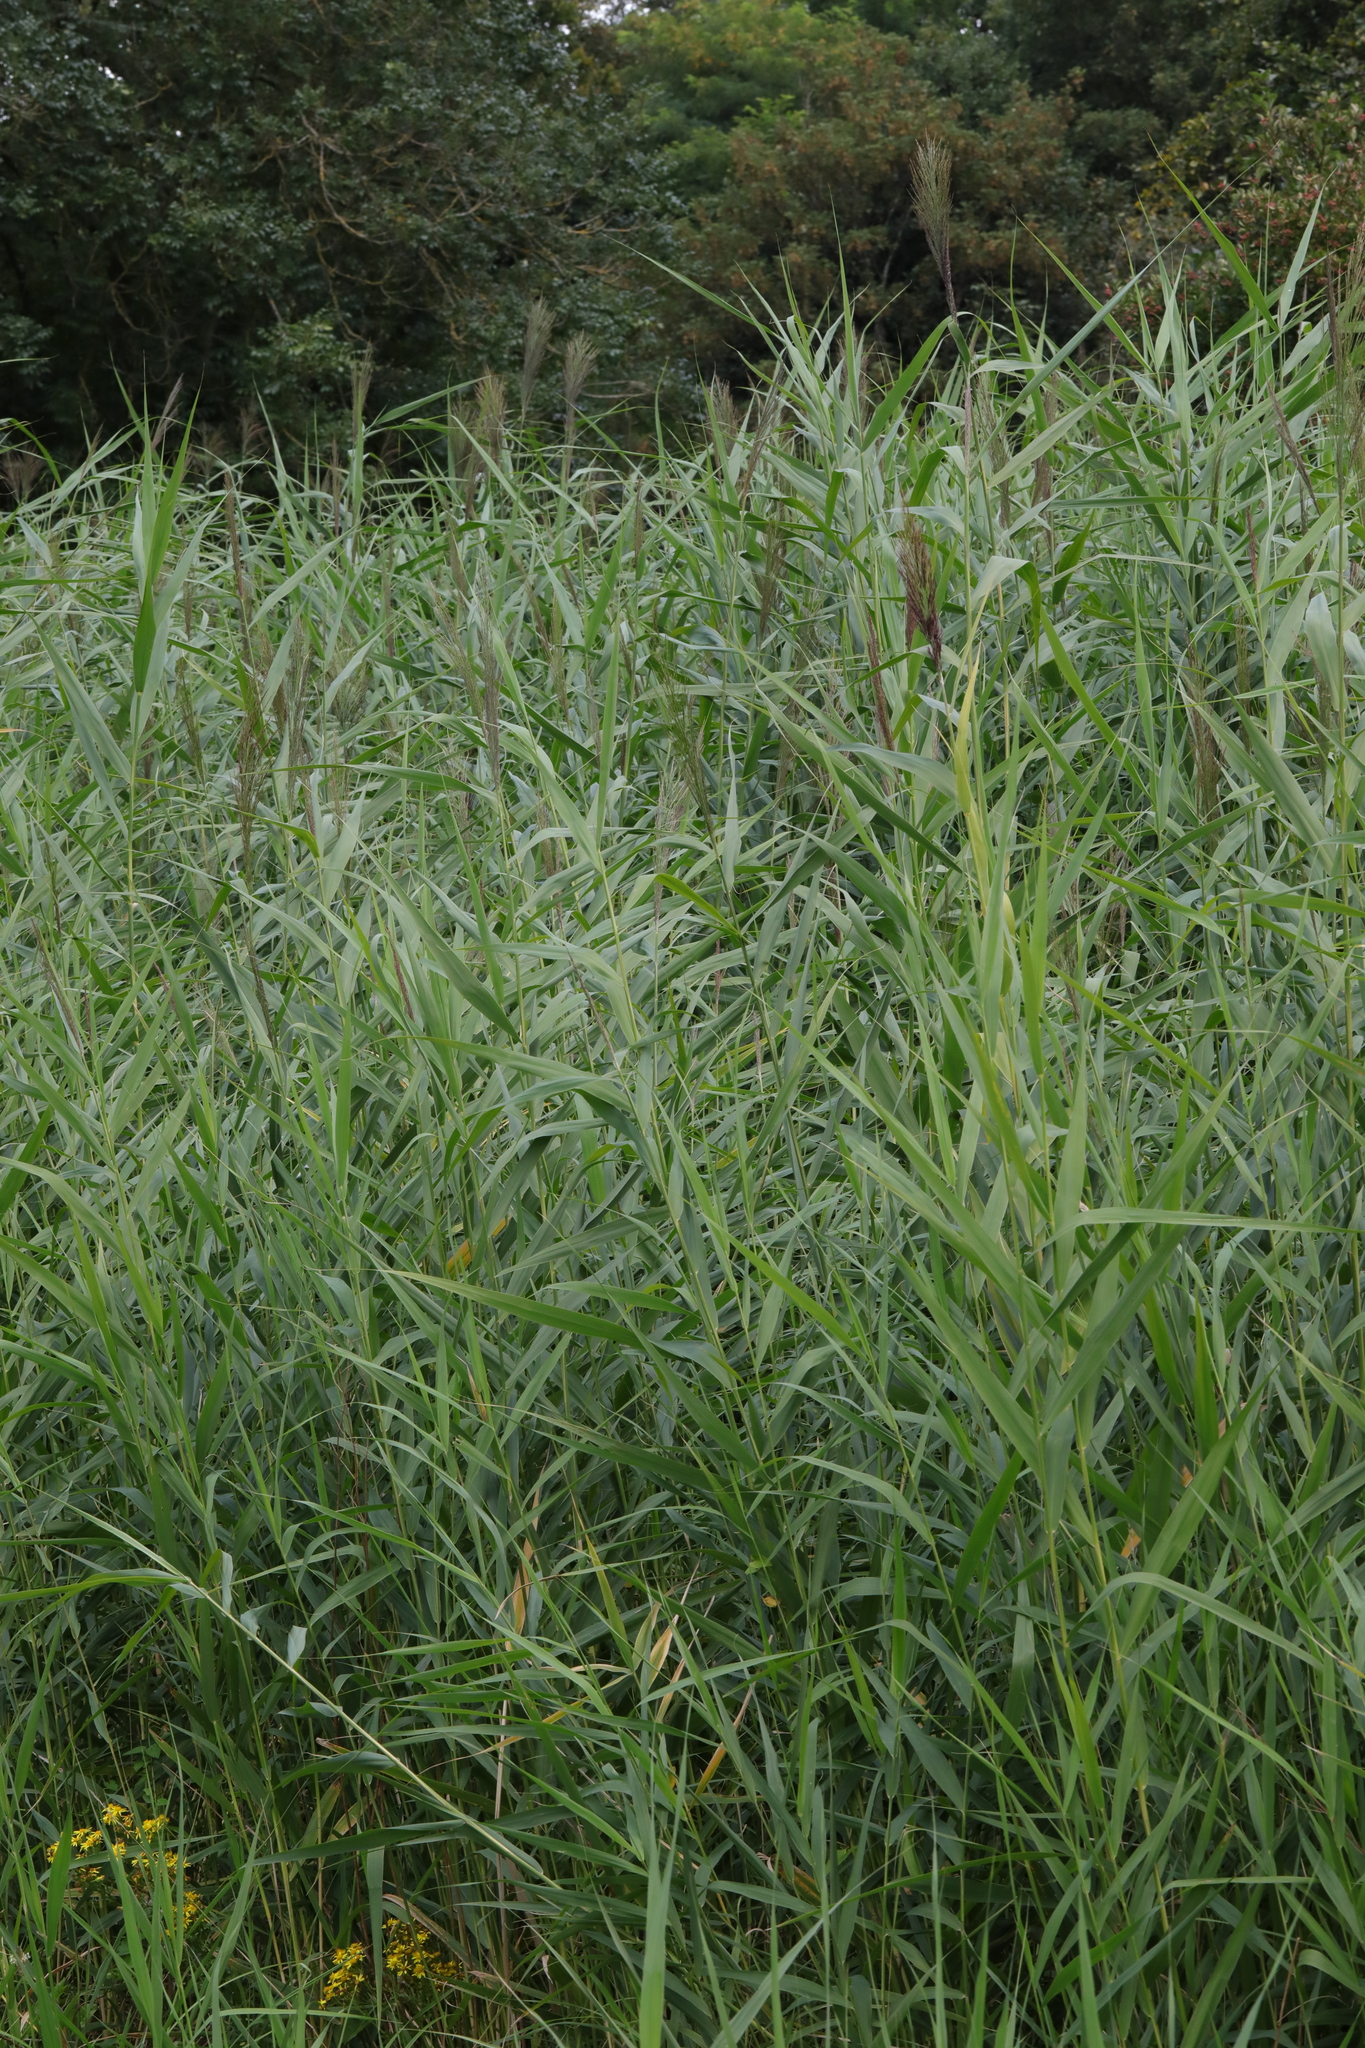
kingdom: Plantae
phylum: Tracheophyta
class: Liliopsida
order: Poales
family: Poaceae
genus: Phragmites
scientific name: Phragmites australis
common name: Common reed
